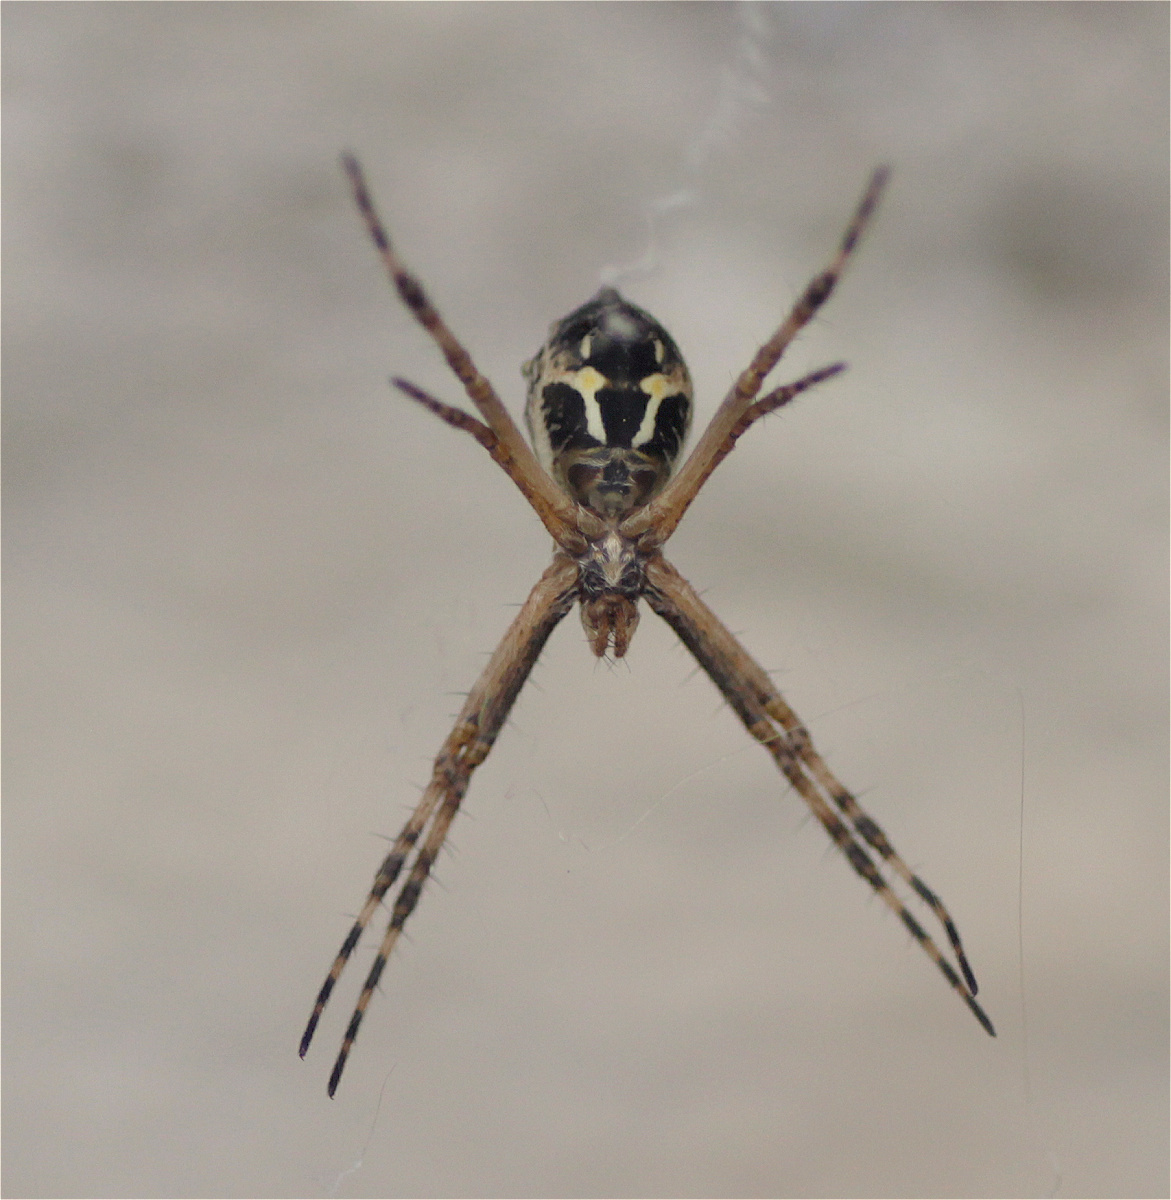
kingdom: Animalia
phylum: Arthropoda
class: Arachnida
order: Araneae
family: Araneidae
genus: Argiope
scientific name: Argiope argentata
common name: Orb weavers
